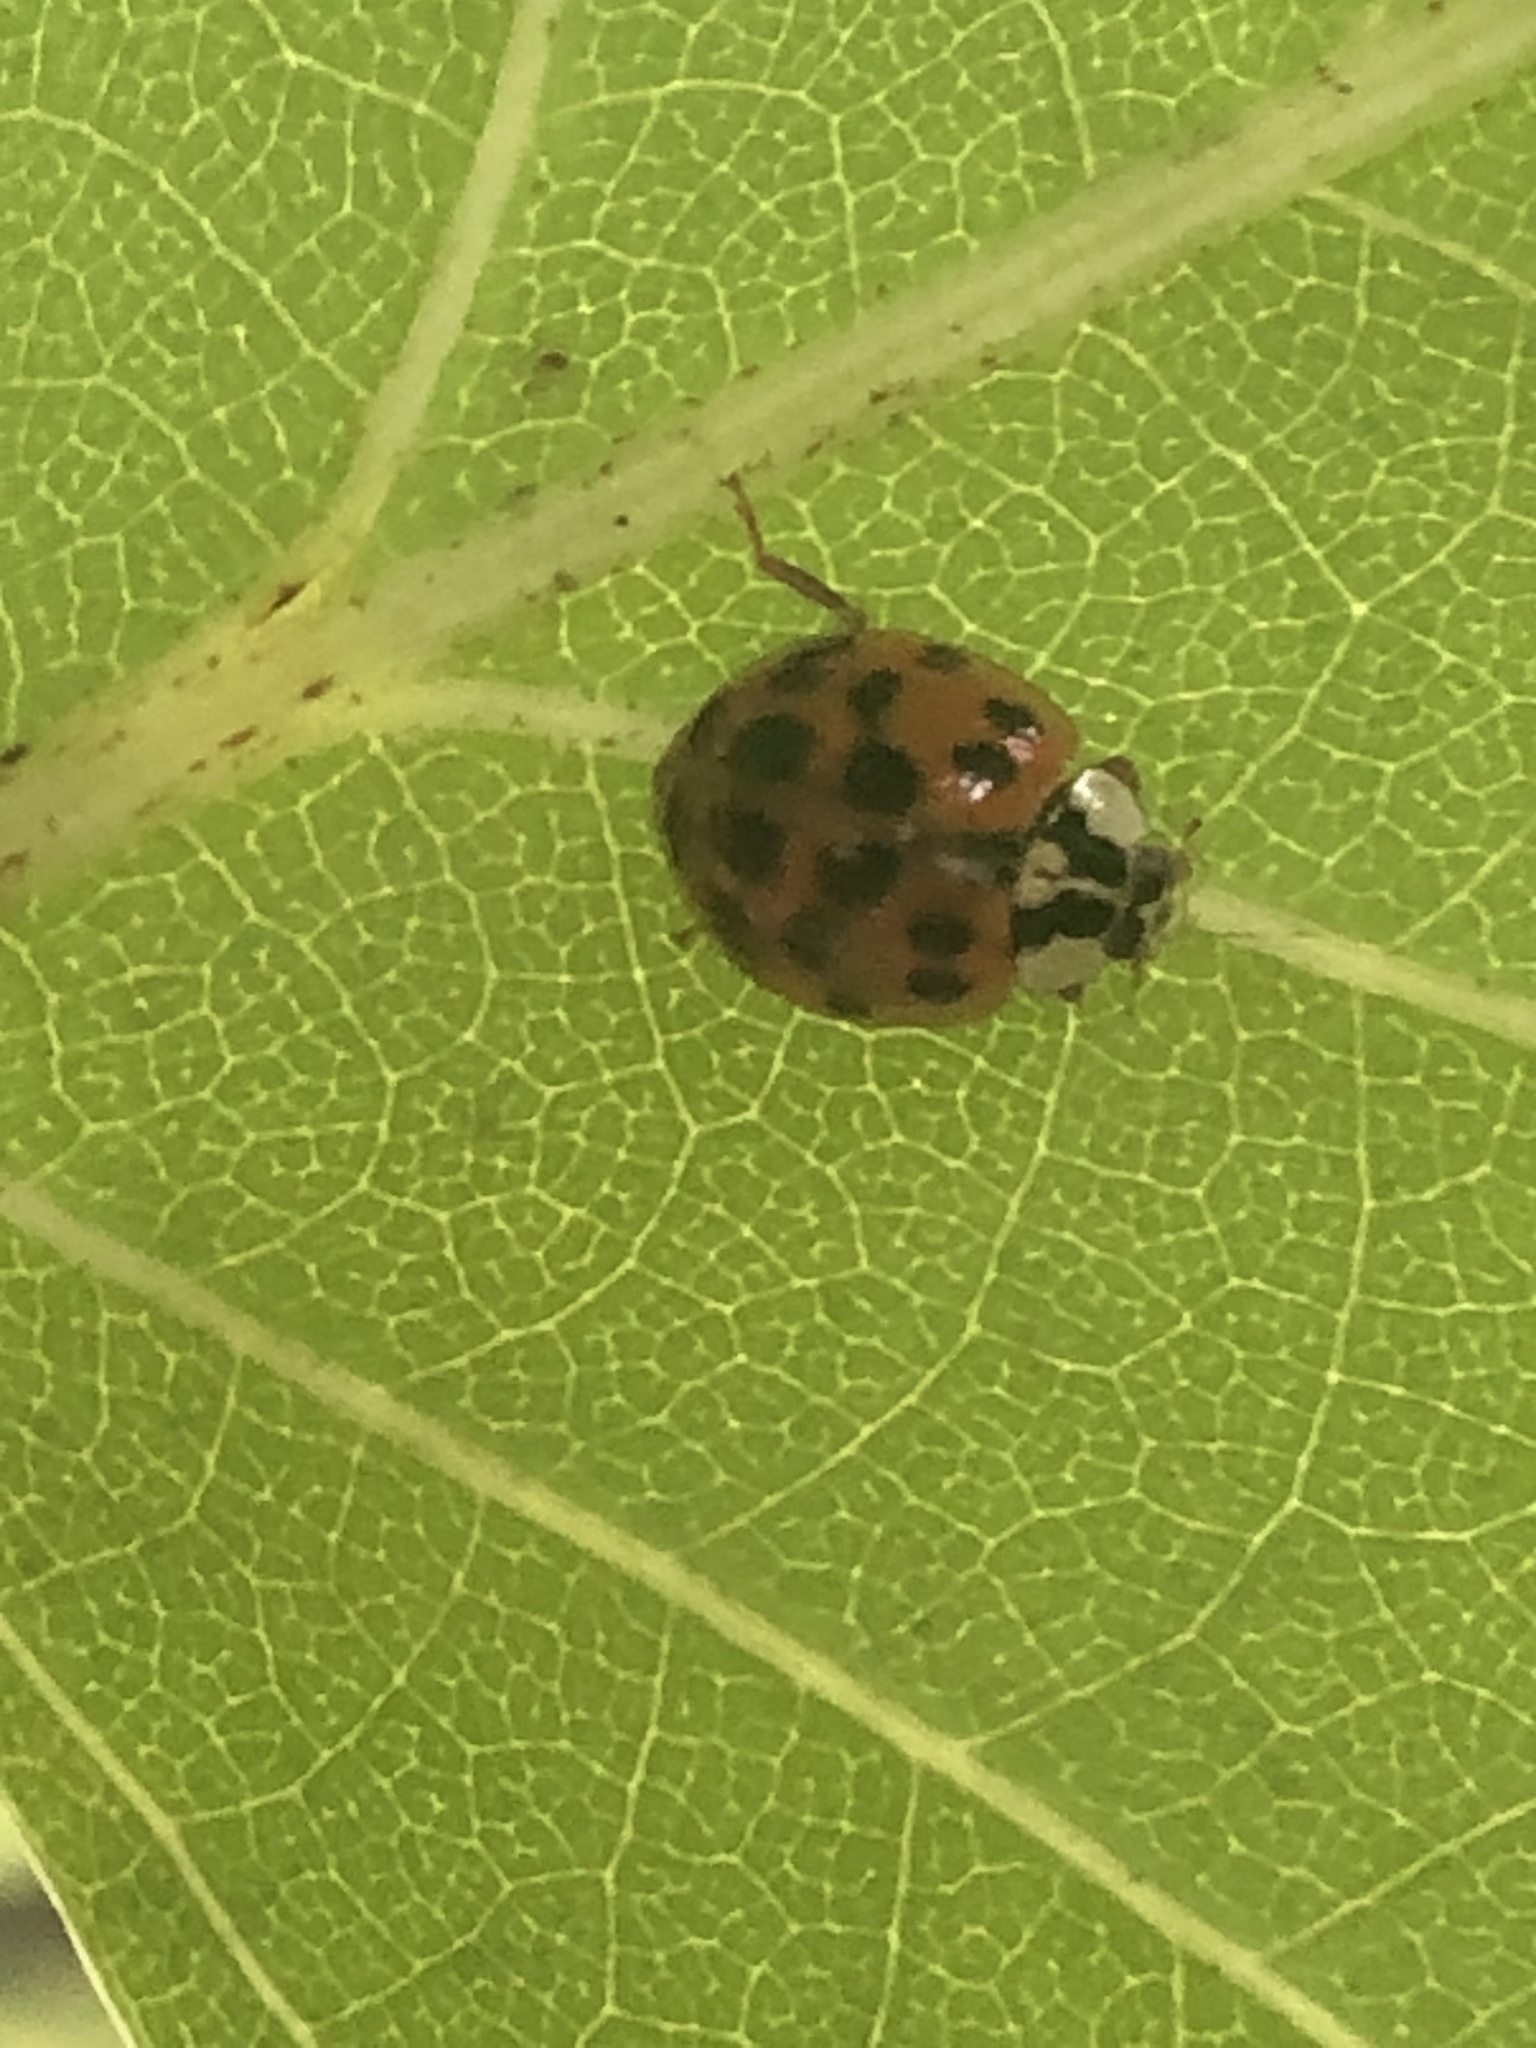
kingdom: Animalia
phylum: Arthropoda
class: Insecta
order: Coleoptera
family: Coccinellidae
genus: Harmonia
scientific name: Harmonia axyridis
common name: Harlequin ladybird
